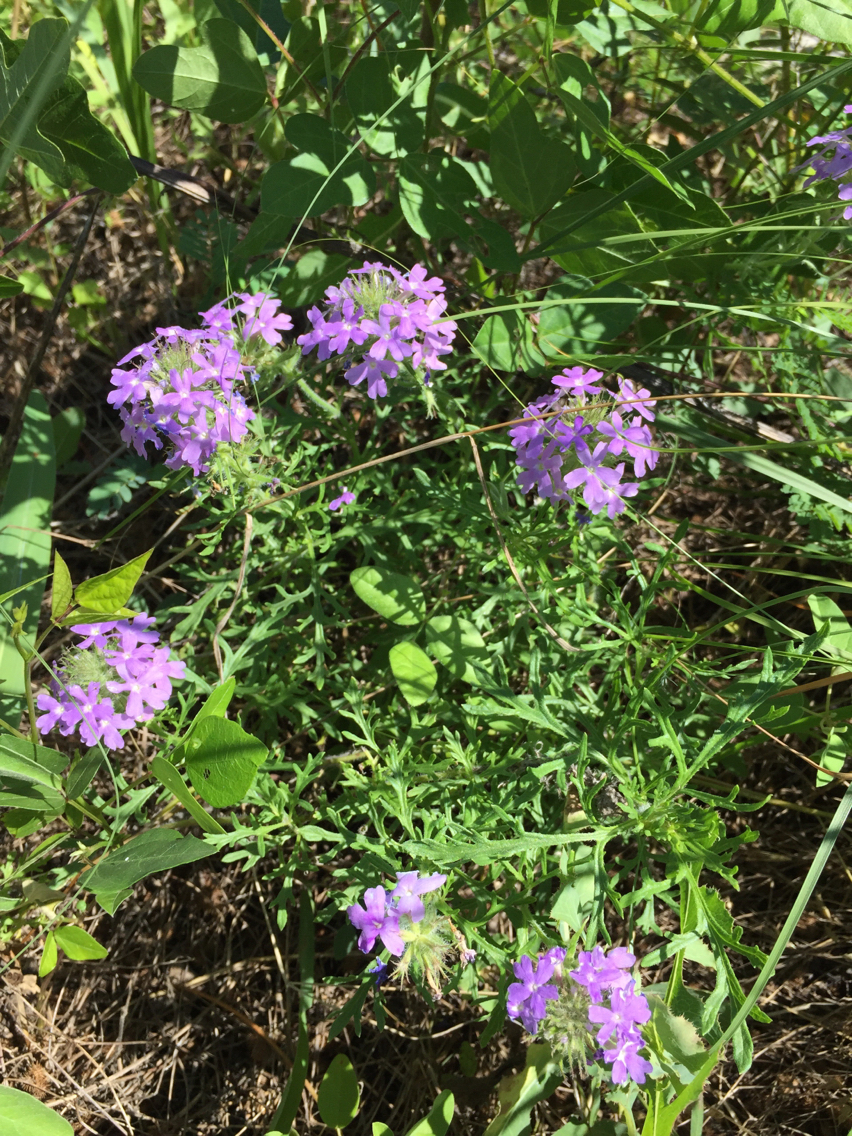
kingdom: Plantae
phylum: Tracheophyta
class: Magnoliopsida
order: Lamiales
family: Verbenaceae
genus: Verbena
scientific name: Verbena bipinnatifida
